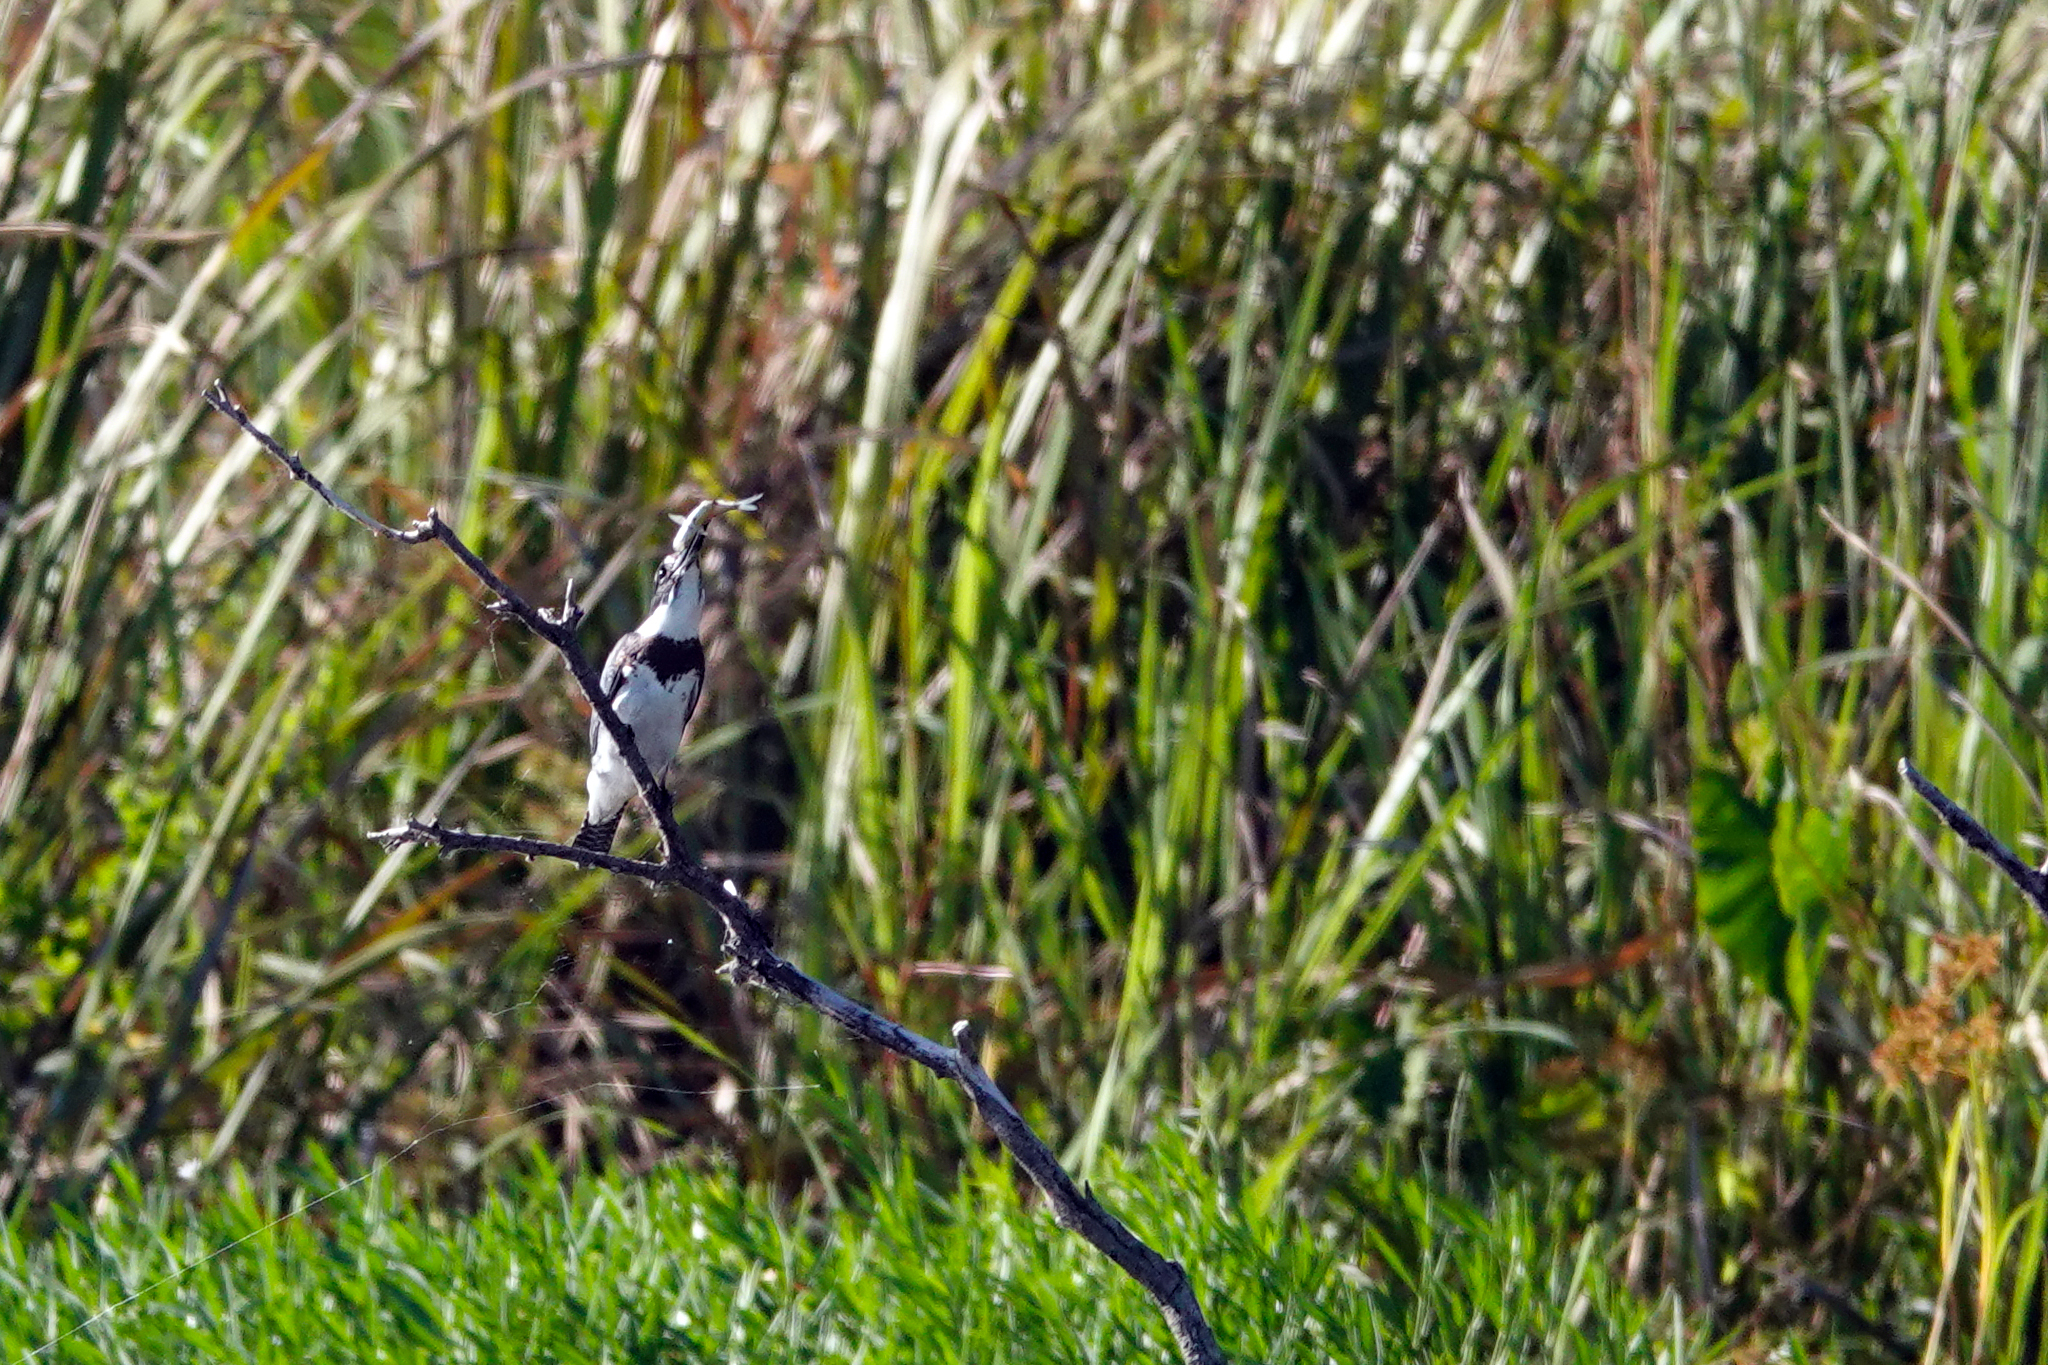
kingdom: Animalia
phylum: Chordata
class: Aves
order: Coraciiformes
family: Alcedinidae
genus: Megaceryle
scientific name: Megaceryle alcyon
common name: Belted kingfisher
